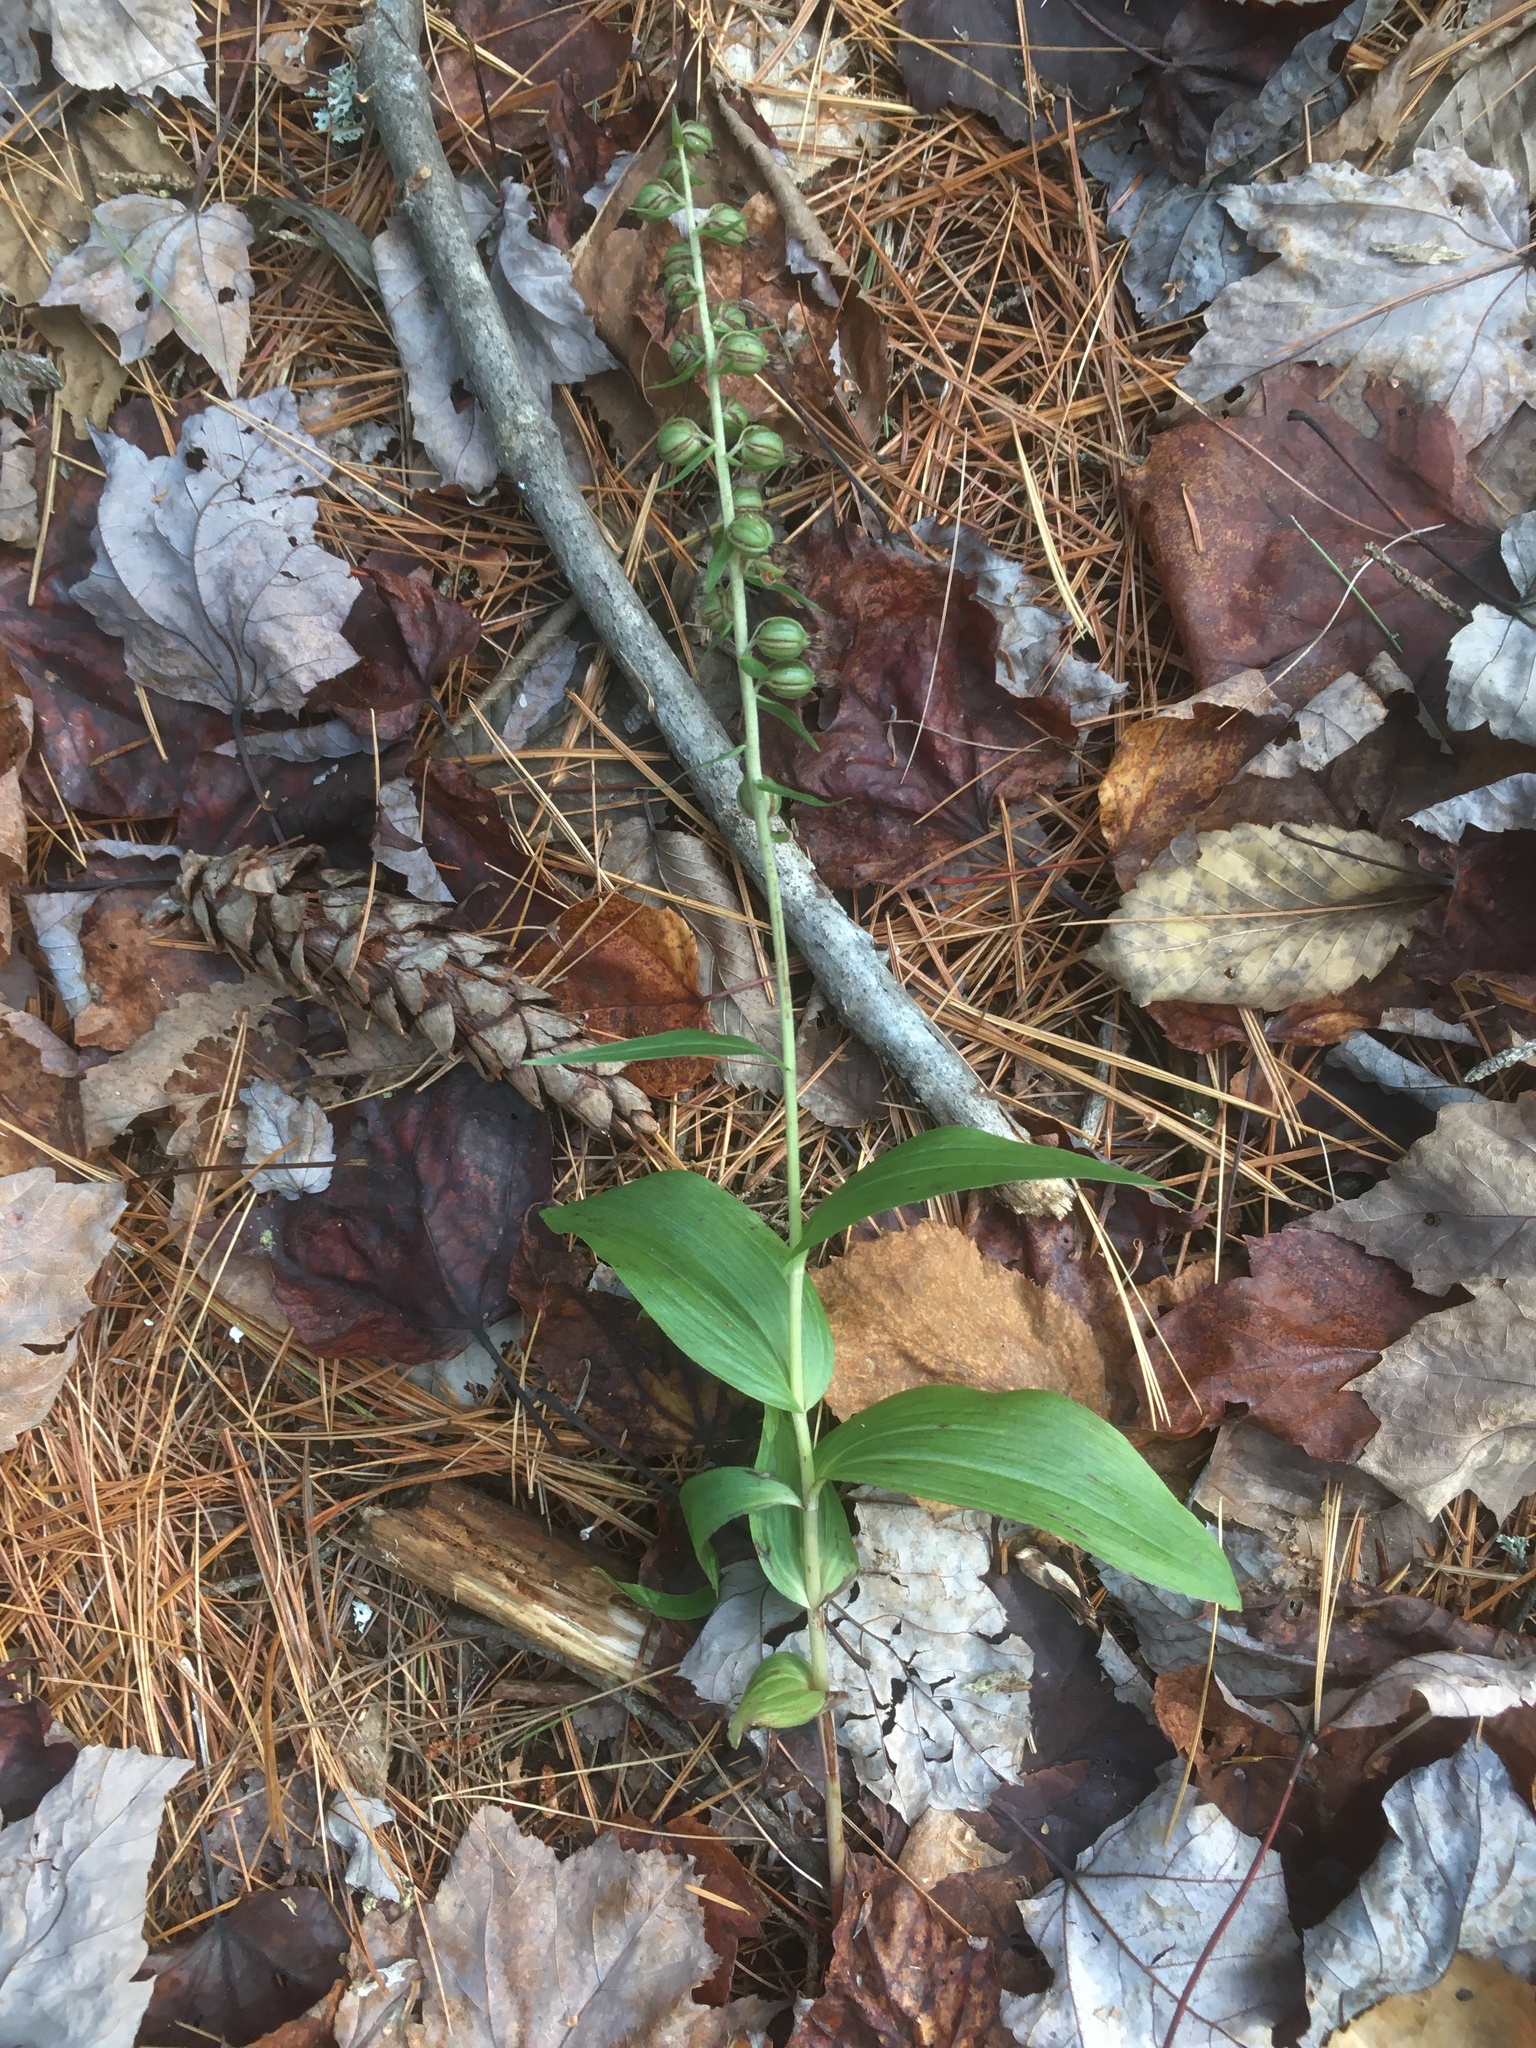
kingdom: Plantae
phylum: Tracheophyta
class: Liliopsida
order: Asparagales
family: Orchidaceae
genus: Epipactis
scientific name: Epipactis helleborine
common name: Broad-leaved helleborine
